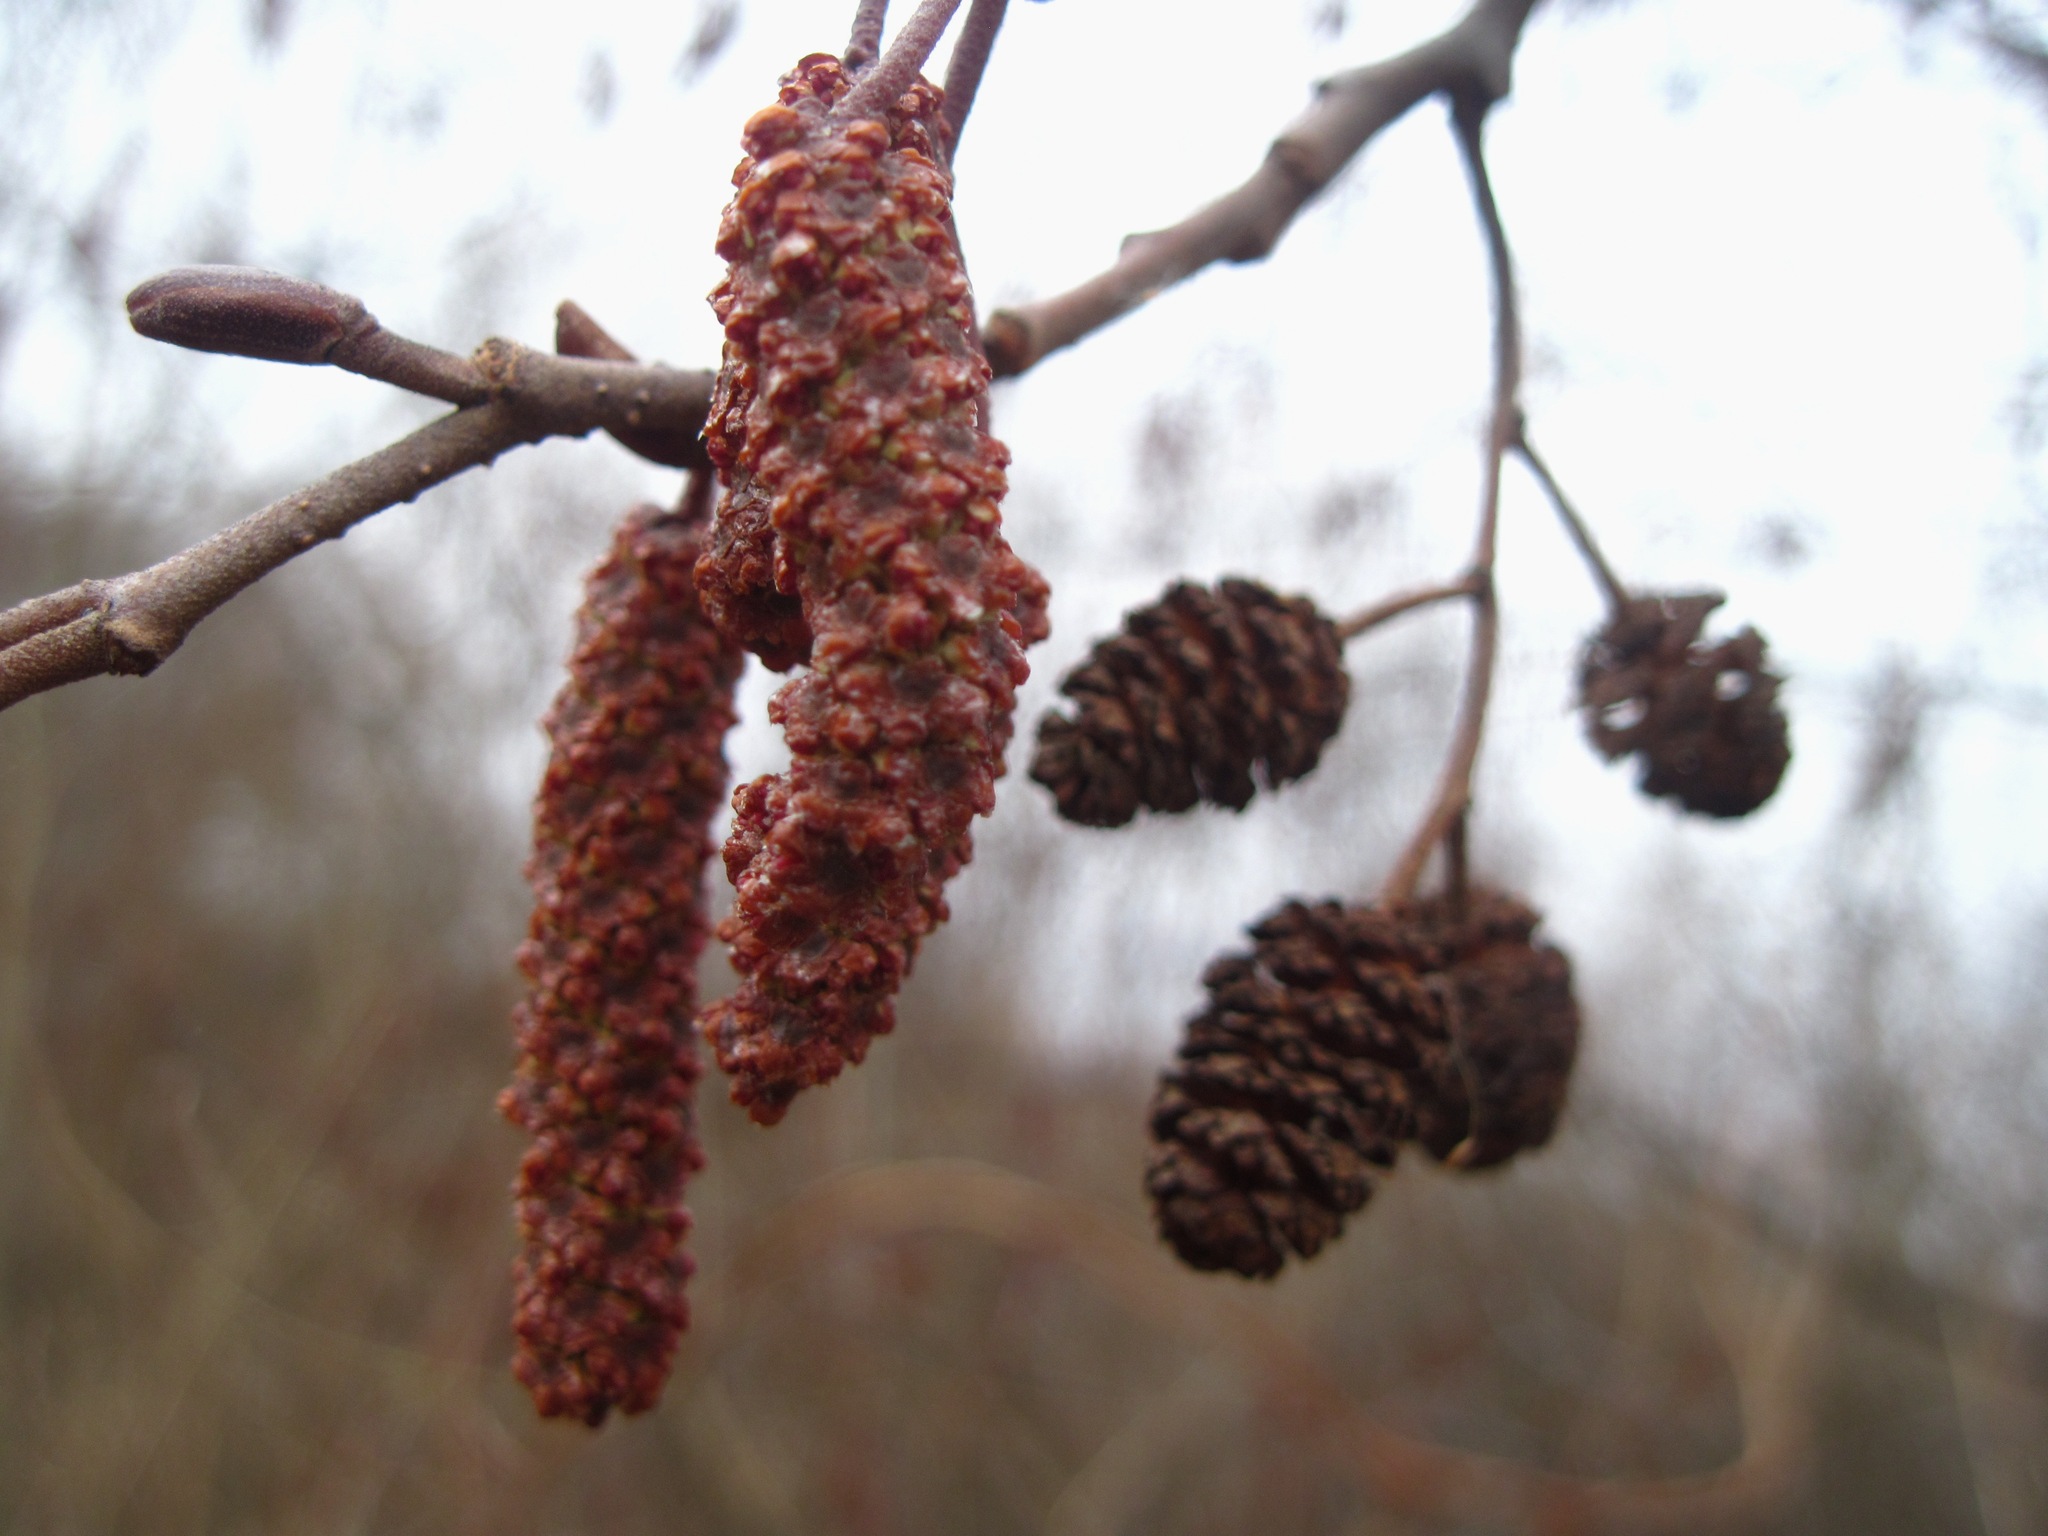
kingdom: Plantae
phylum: Tracheophyta
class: Magnoliopsida
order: Fagales
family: Betulaceae
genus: Alnus
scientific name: Alnus glutinosa
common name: Black alder
